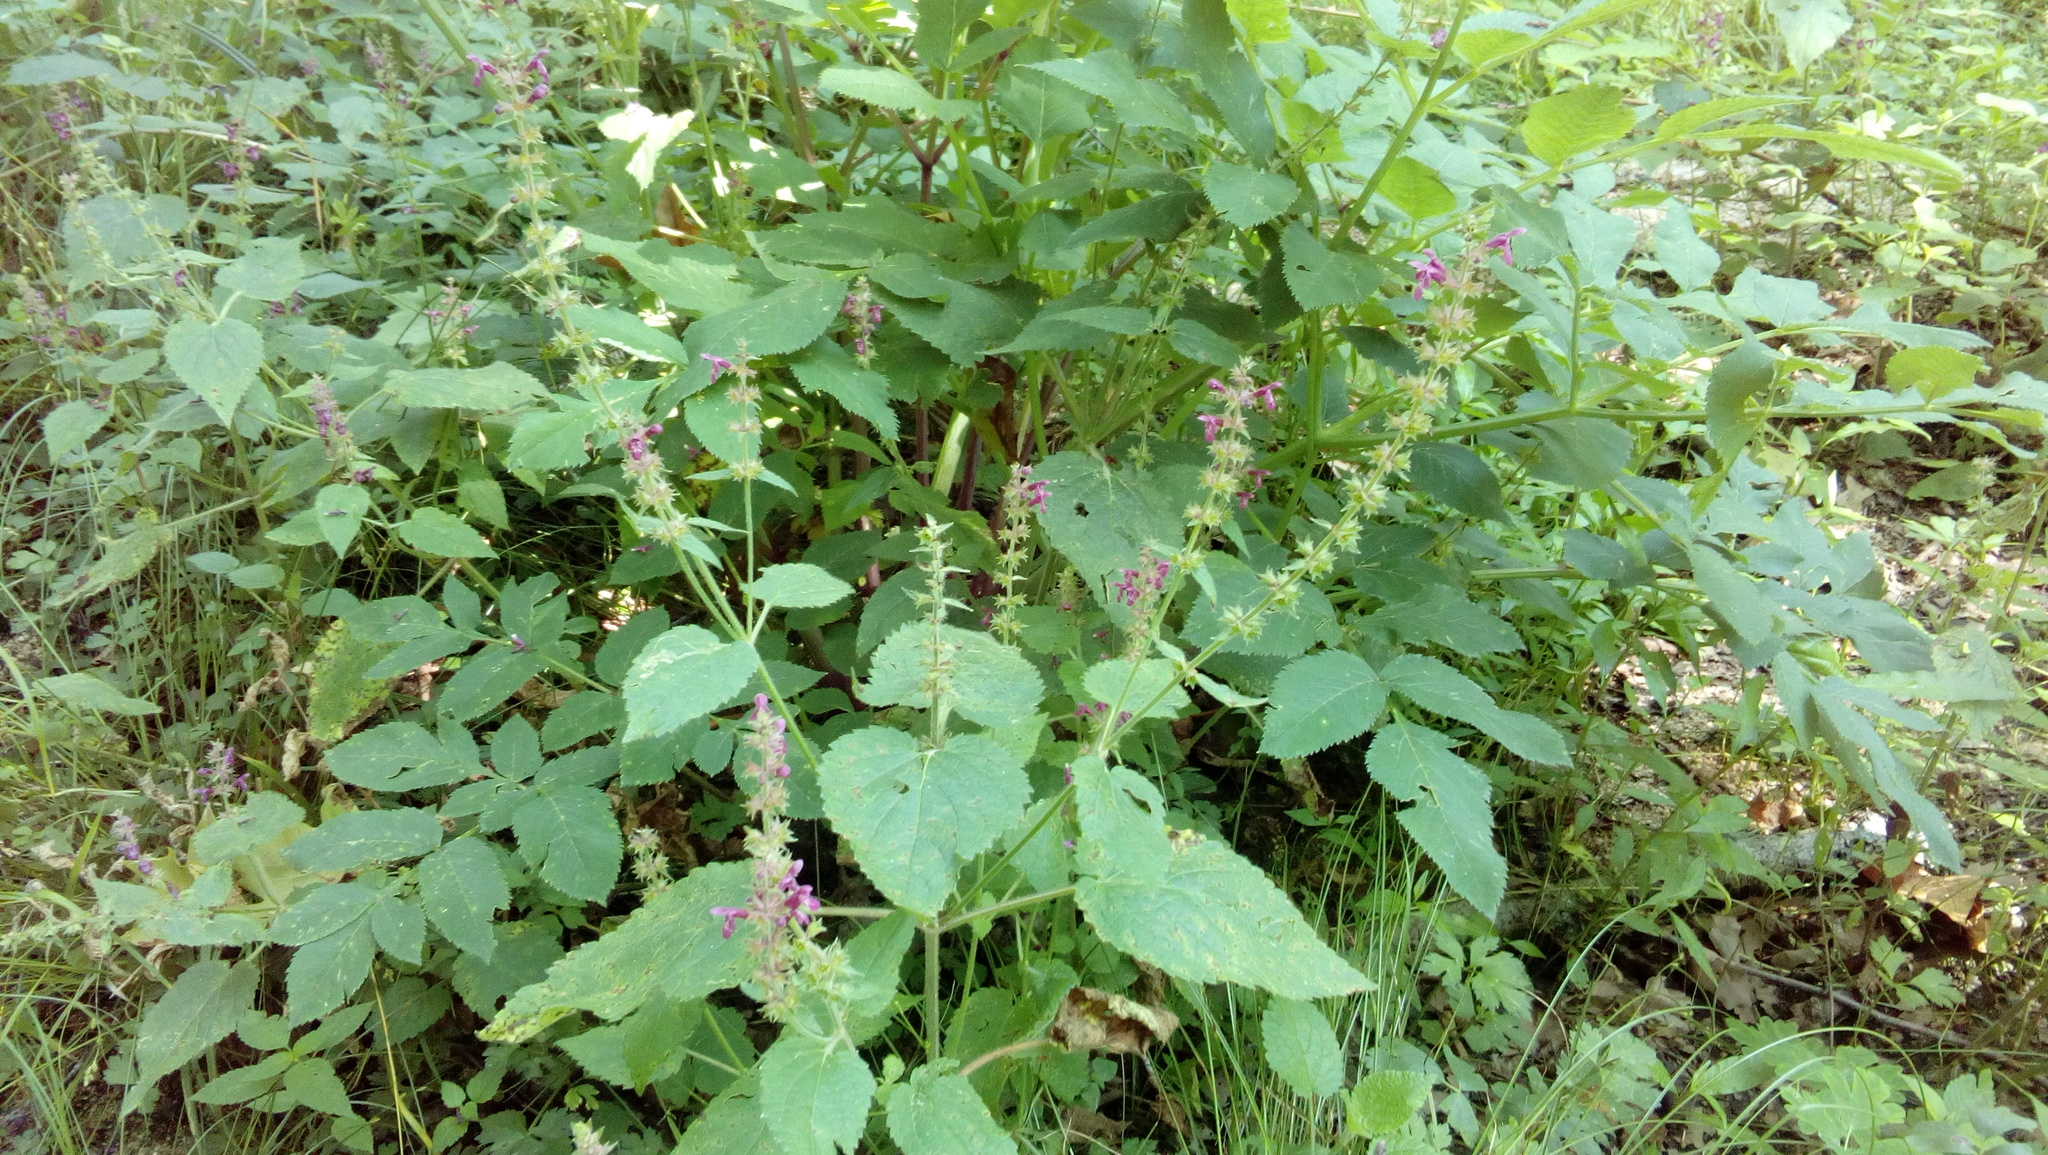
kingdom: Plantae
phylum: Tracheophyta
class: Magnoliopsida
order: Lamiales
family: Lamiaceae
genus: Stachys
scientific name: Stachys sylvatica
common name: Hedge woundwort
